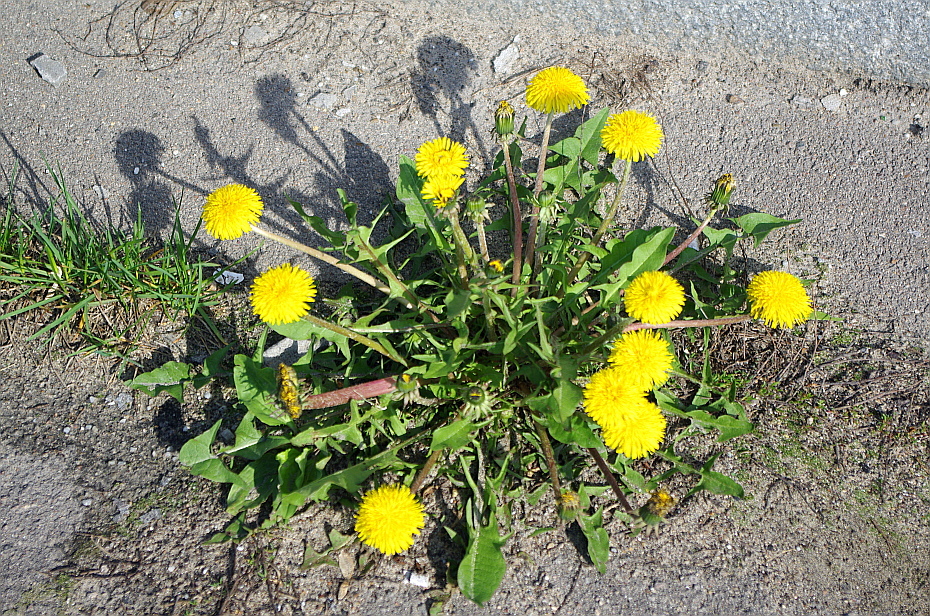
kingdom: Plantae
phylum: Tracheophyta
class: Magnoliopsida
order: Asterales
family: Asteraceae
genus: Taraxacum
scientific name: Taraxacum officinale
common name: Common dandelion
